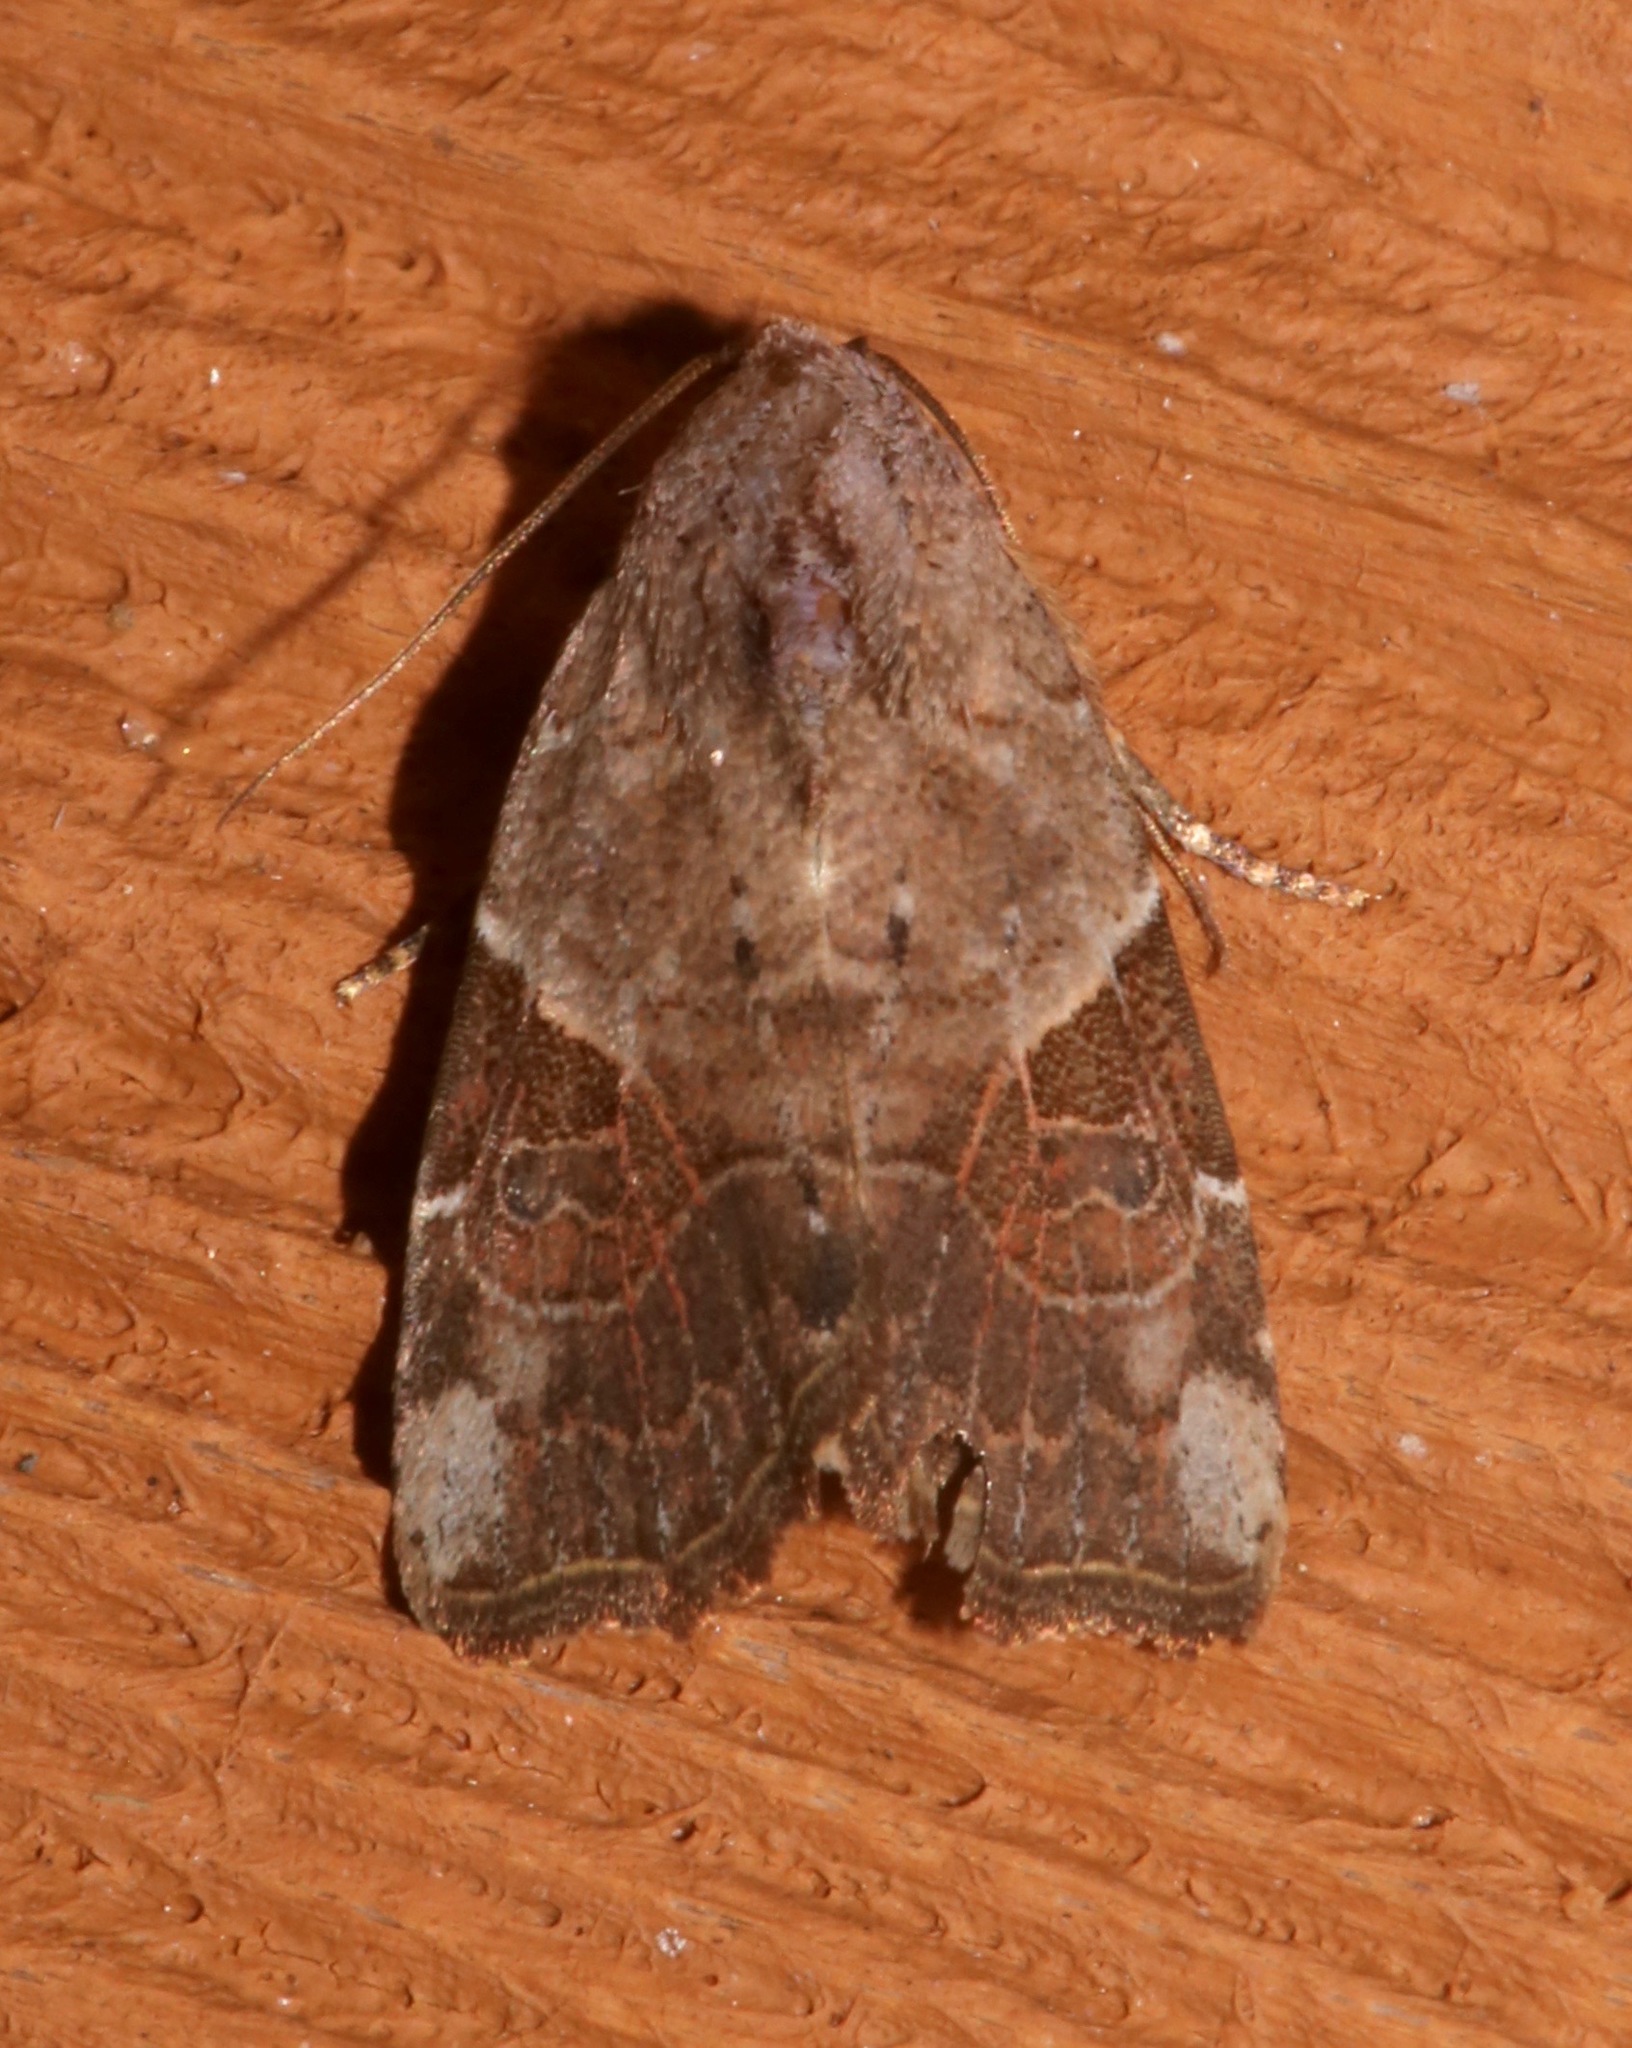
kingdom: Animalia
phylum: Arthropoda
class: Insecta
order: Lepidoptera
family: Noctuidae
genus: Gonodes
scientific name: Gonodes liquida
